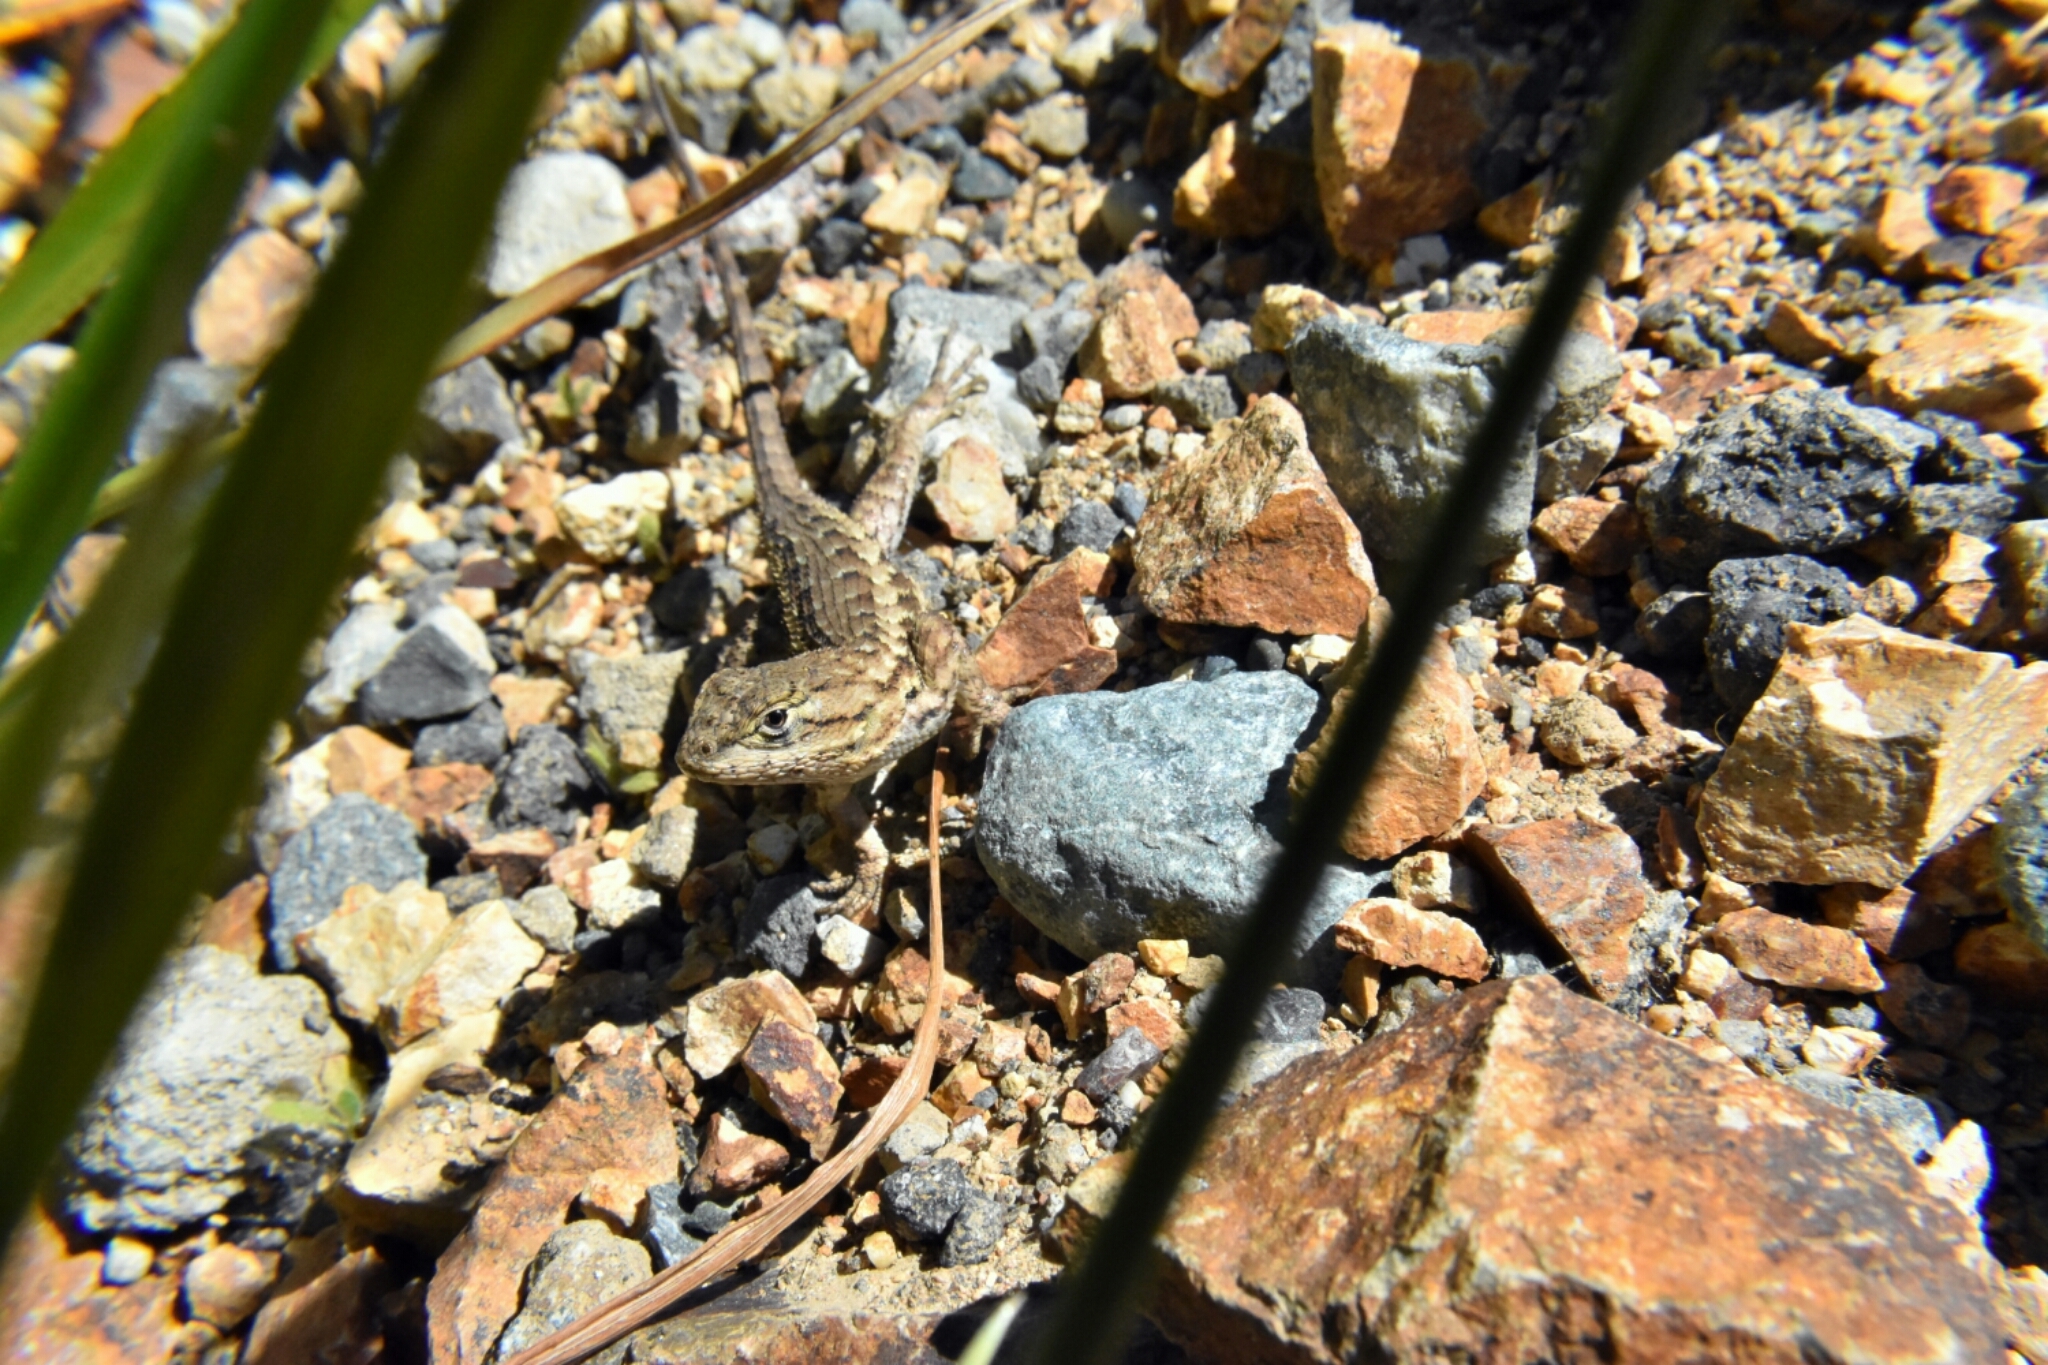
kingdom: Animalia
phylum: Chordata
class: Squamata
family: Phrynosomatidae
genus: Sceloporus
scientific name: Sceloporus occidentalis
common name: Western fence lizard
